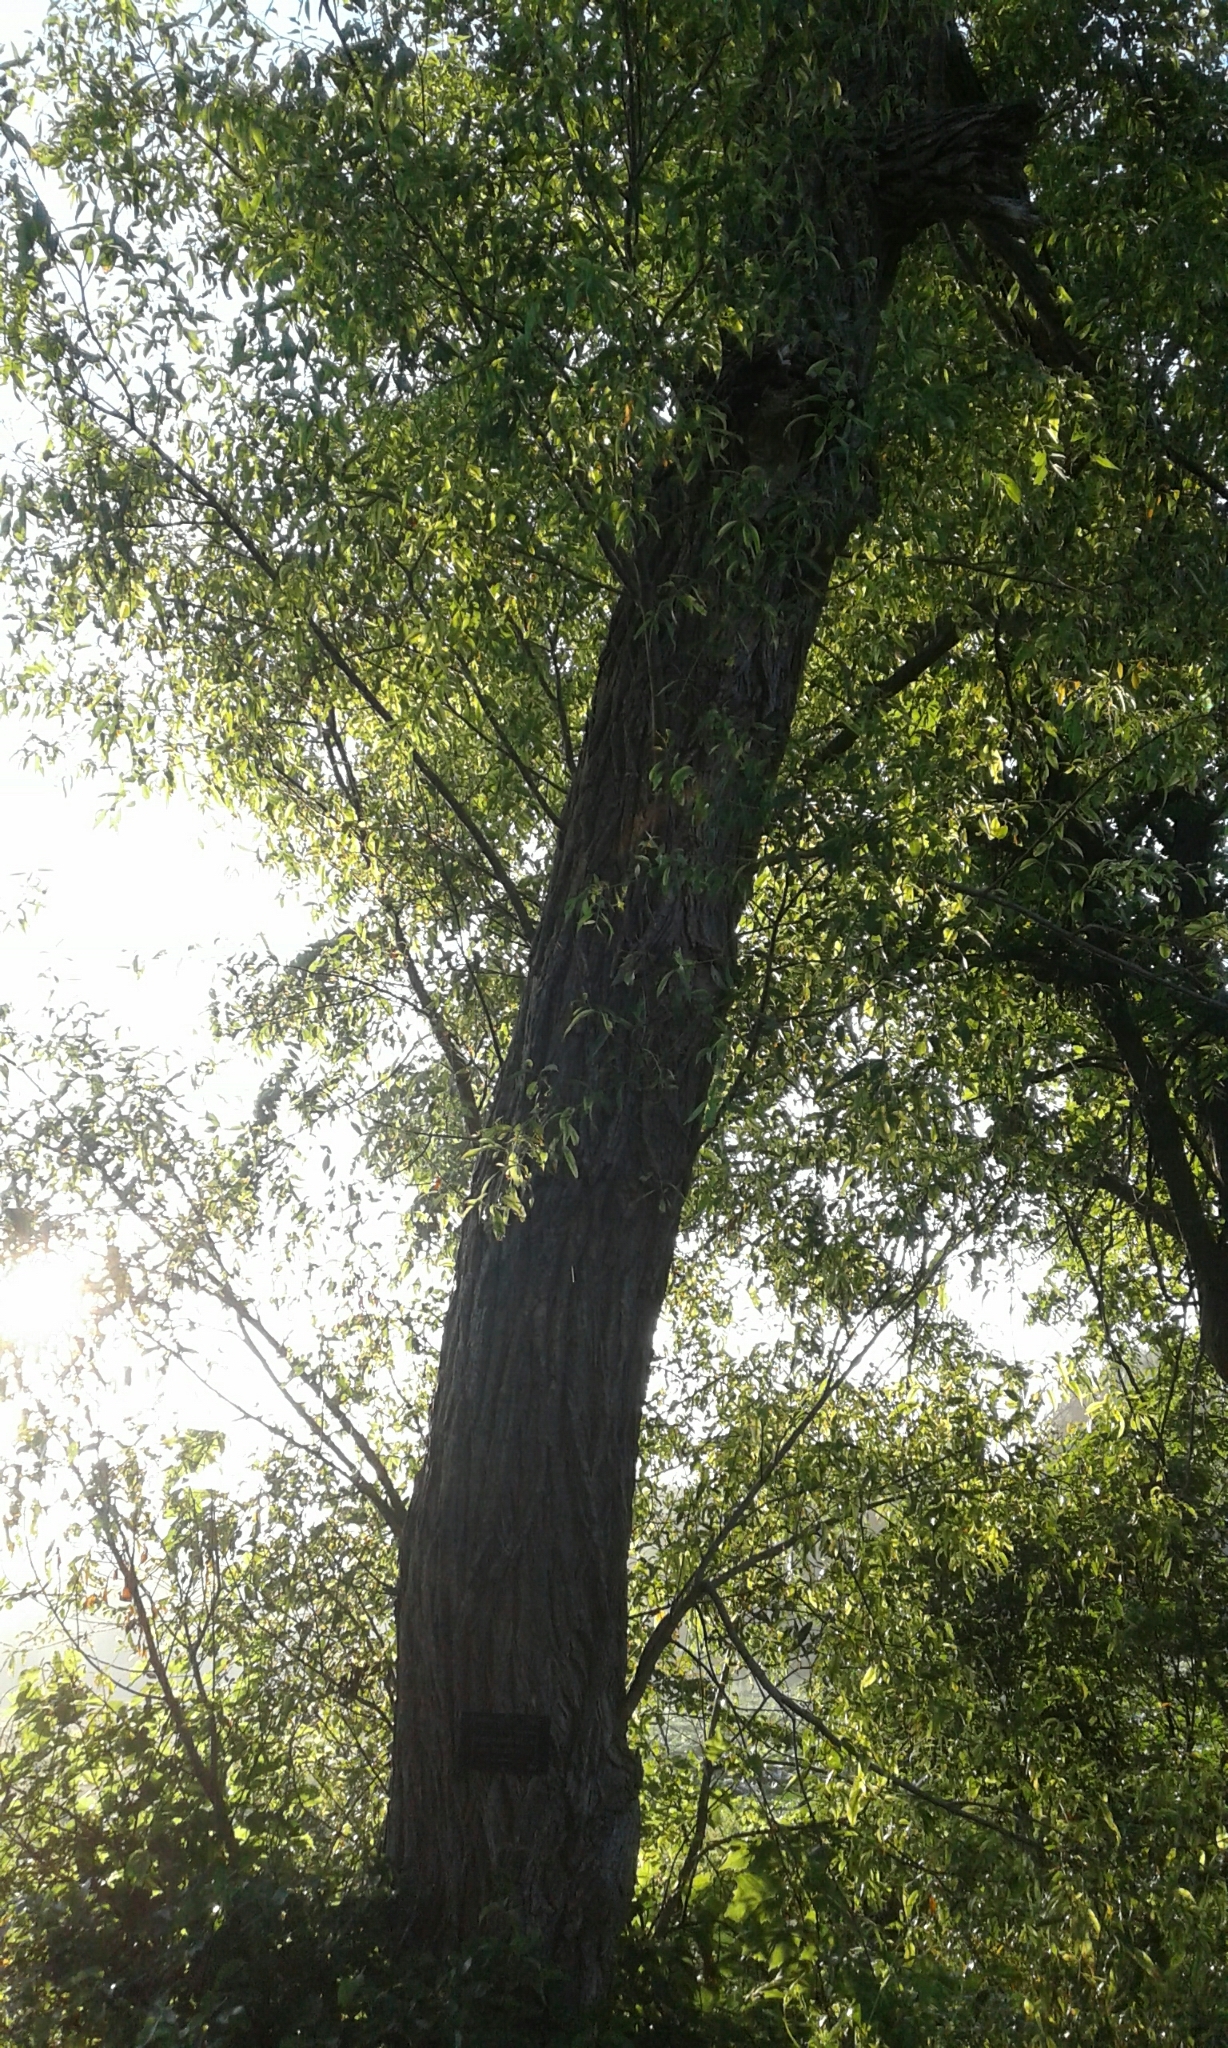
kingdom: Plantae
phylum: Tracheophyta
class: Magnoliopsida
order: Malpighiales
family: Salicaceae
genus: Salix
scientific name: Salix amygdaloides
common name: Peach leaf willow
